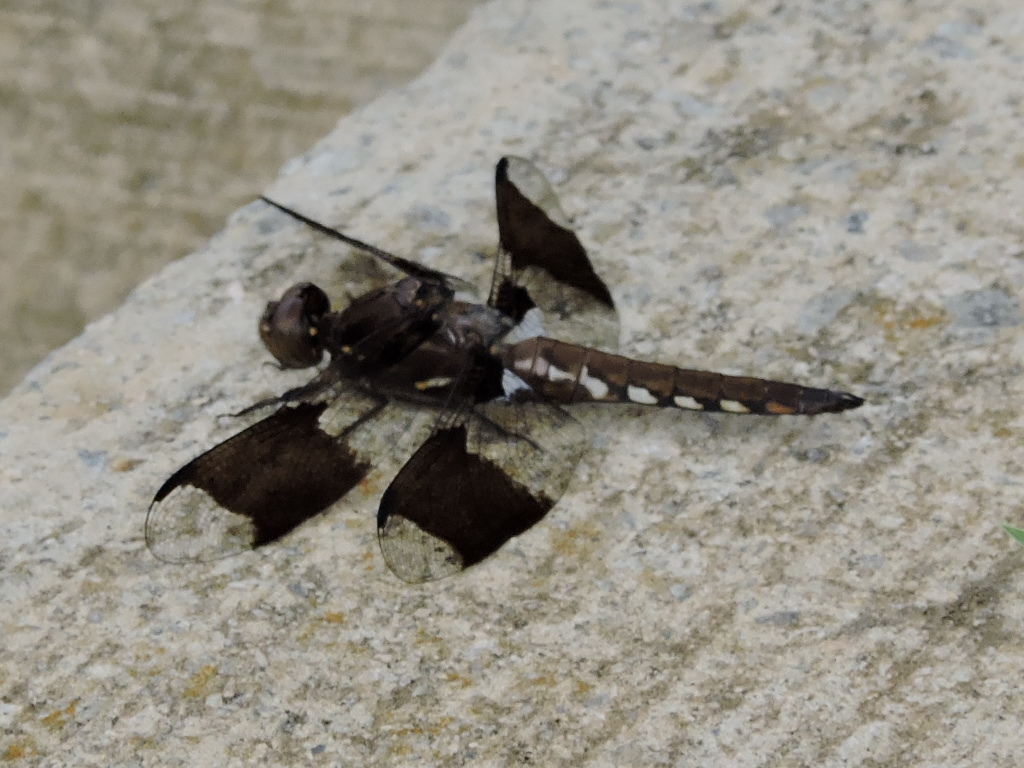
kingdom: Animalia
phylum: Arthropoda
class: Insecta
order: Odonata
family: Libellulidae
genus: Plathemis
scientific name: Plathemis lydia
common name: Common whitetail
